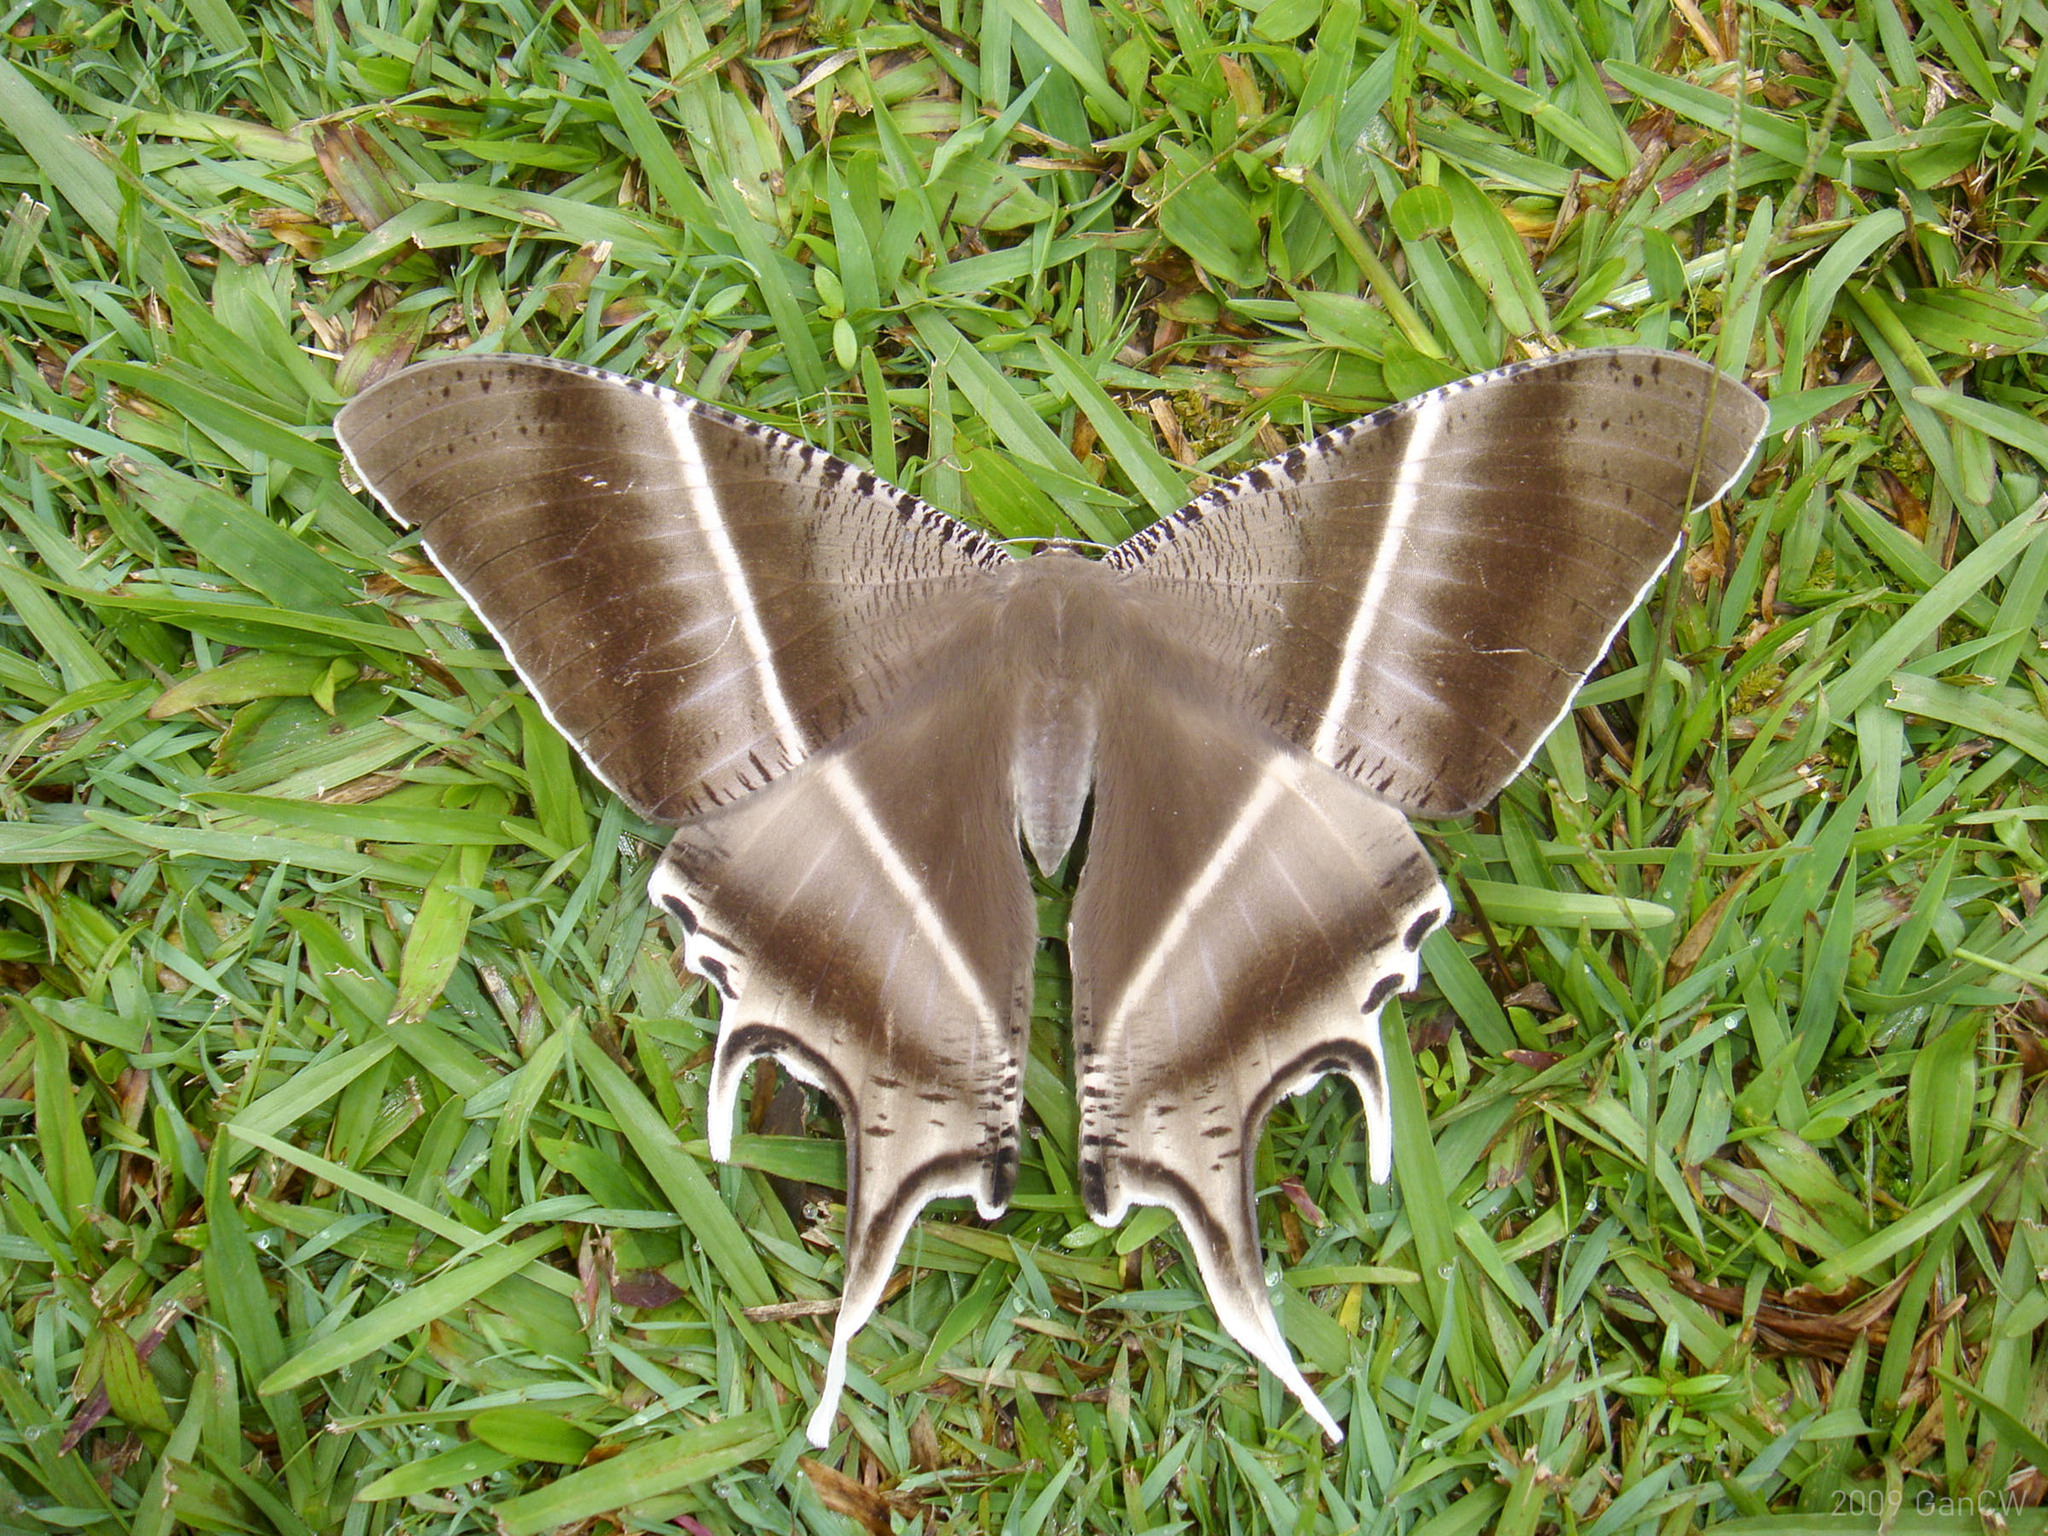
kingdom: Animalia
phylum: Arthropoda
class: Insecta
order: Lepidoptera
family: Uraniidae
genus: Lyssa
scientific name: Lyssa zampa
